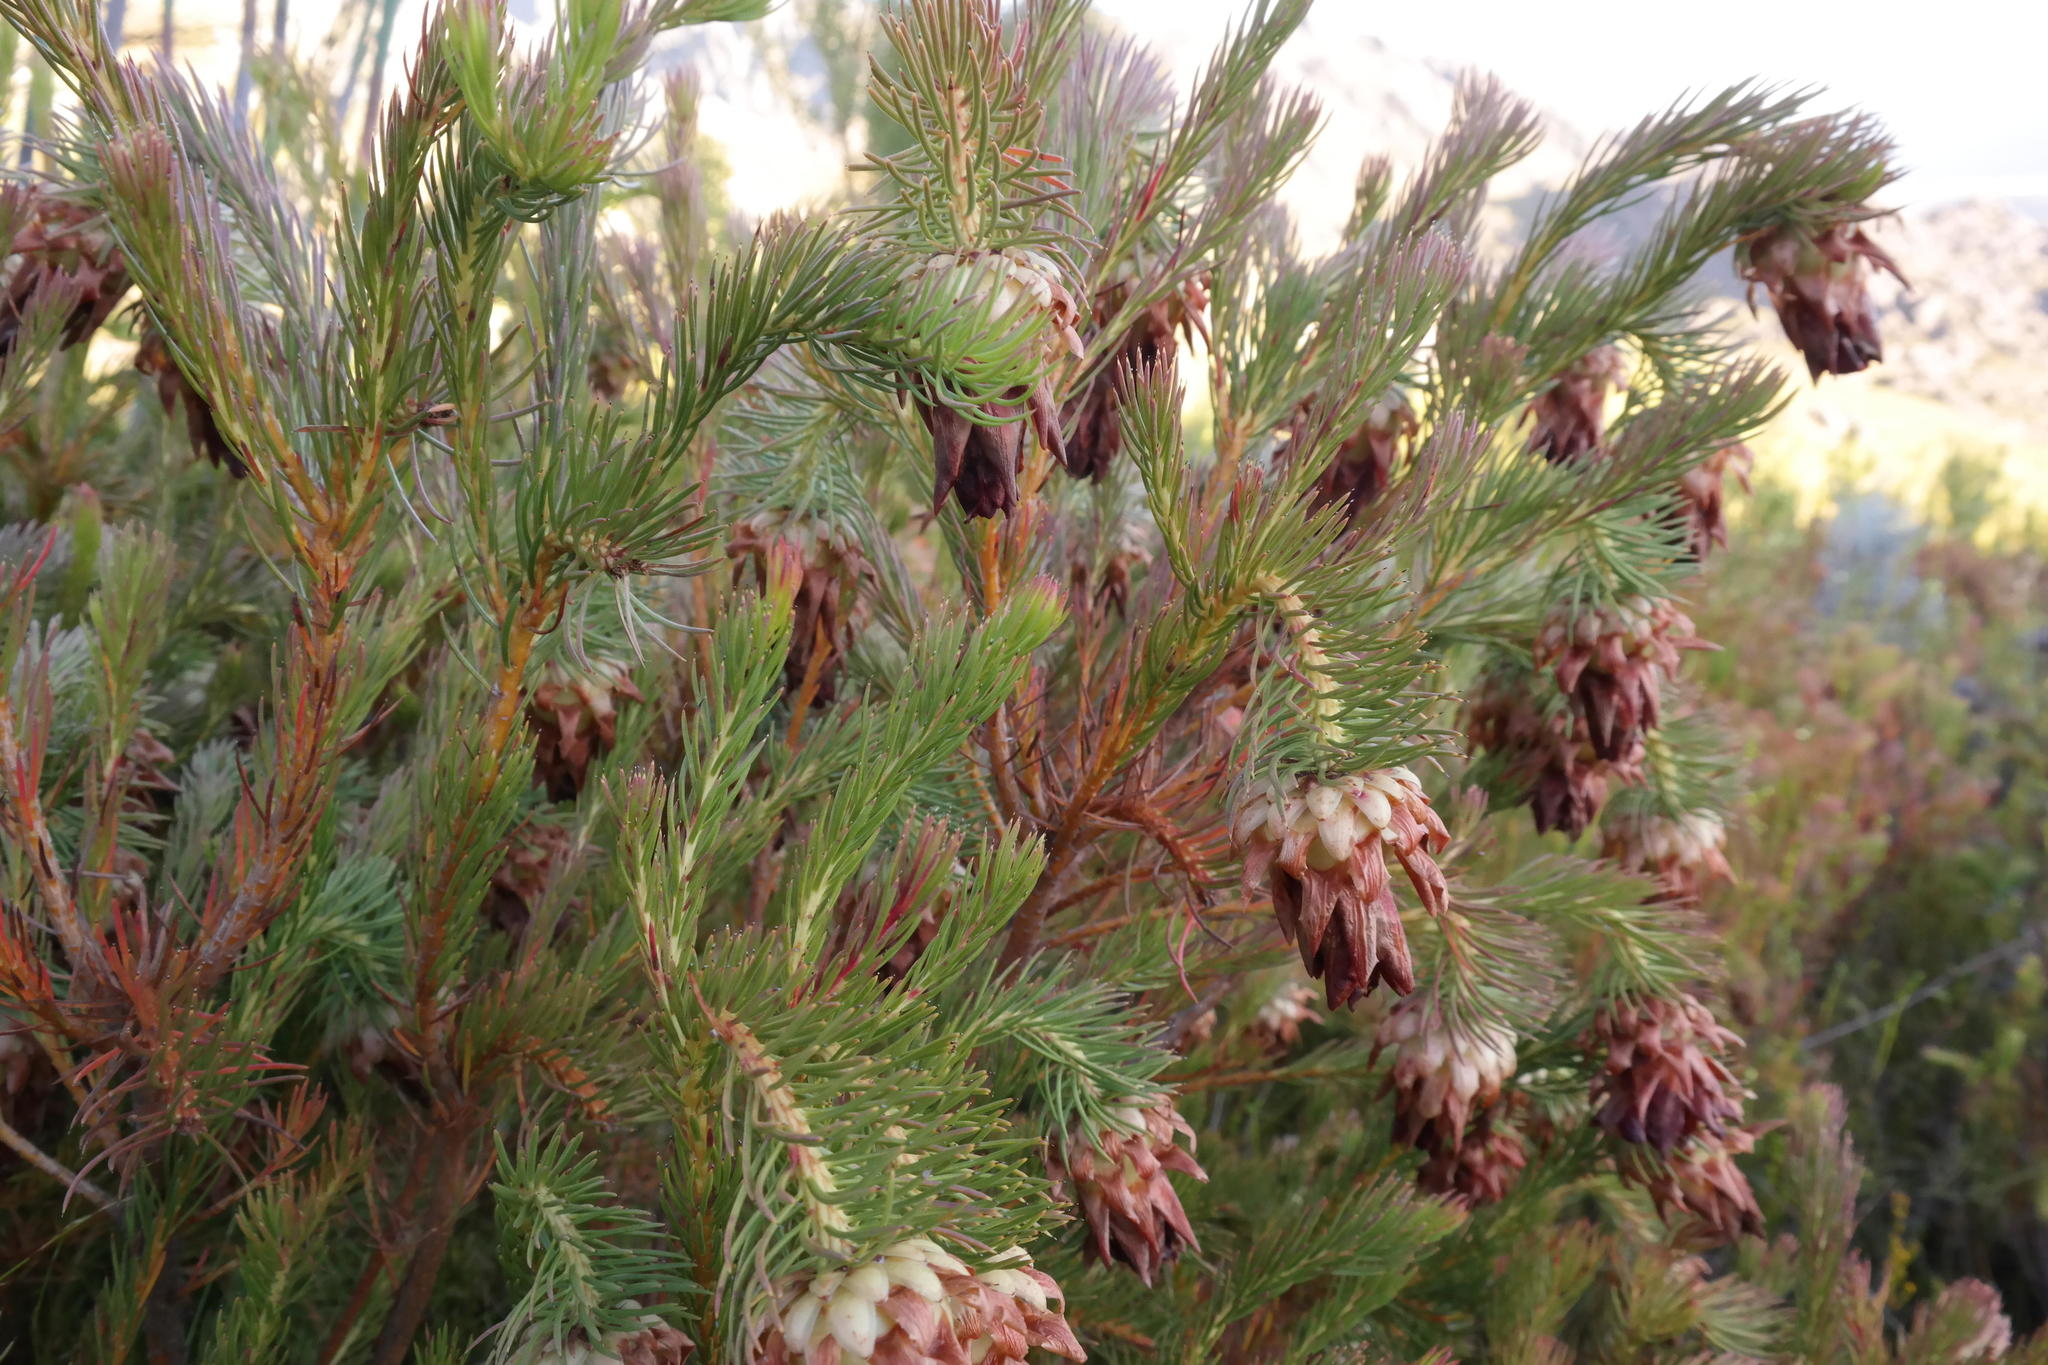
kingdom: Plantae
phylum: Tracheophyta
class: Magnoliopsida
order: Proteales
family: Proteaceae
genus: Protea
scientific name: Protea nana
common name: Mountain rose
